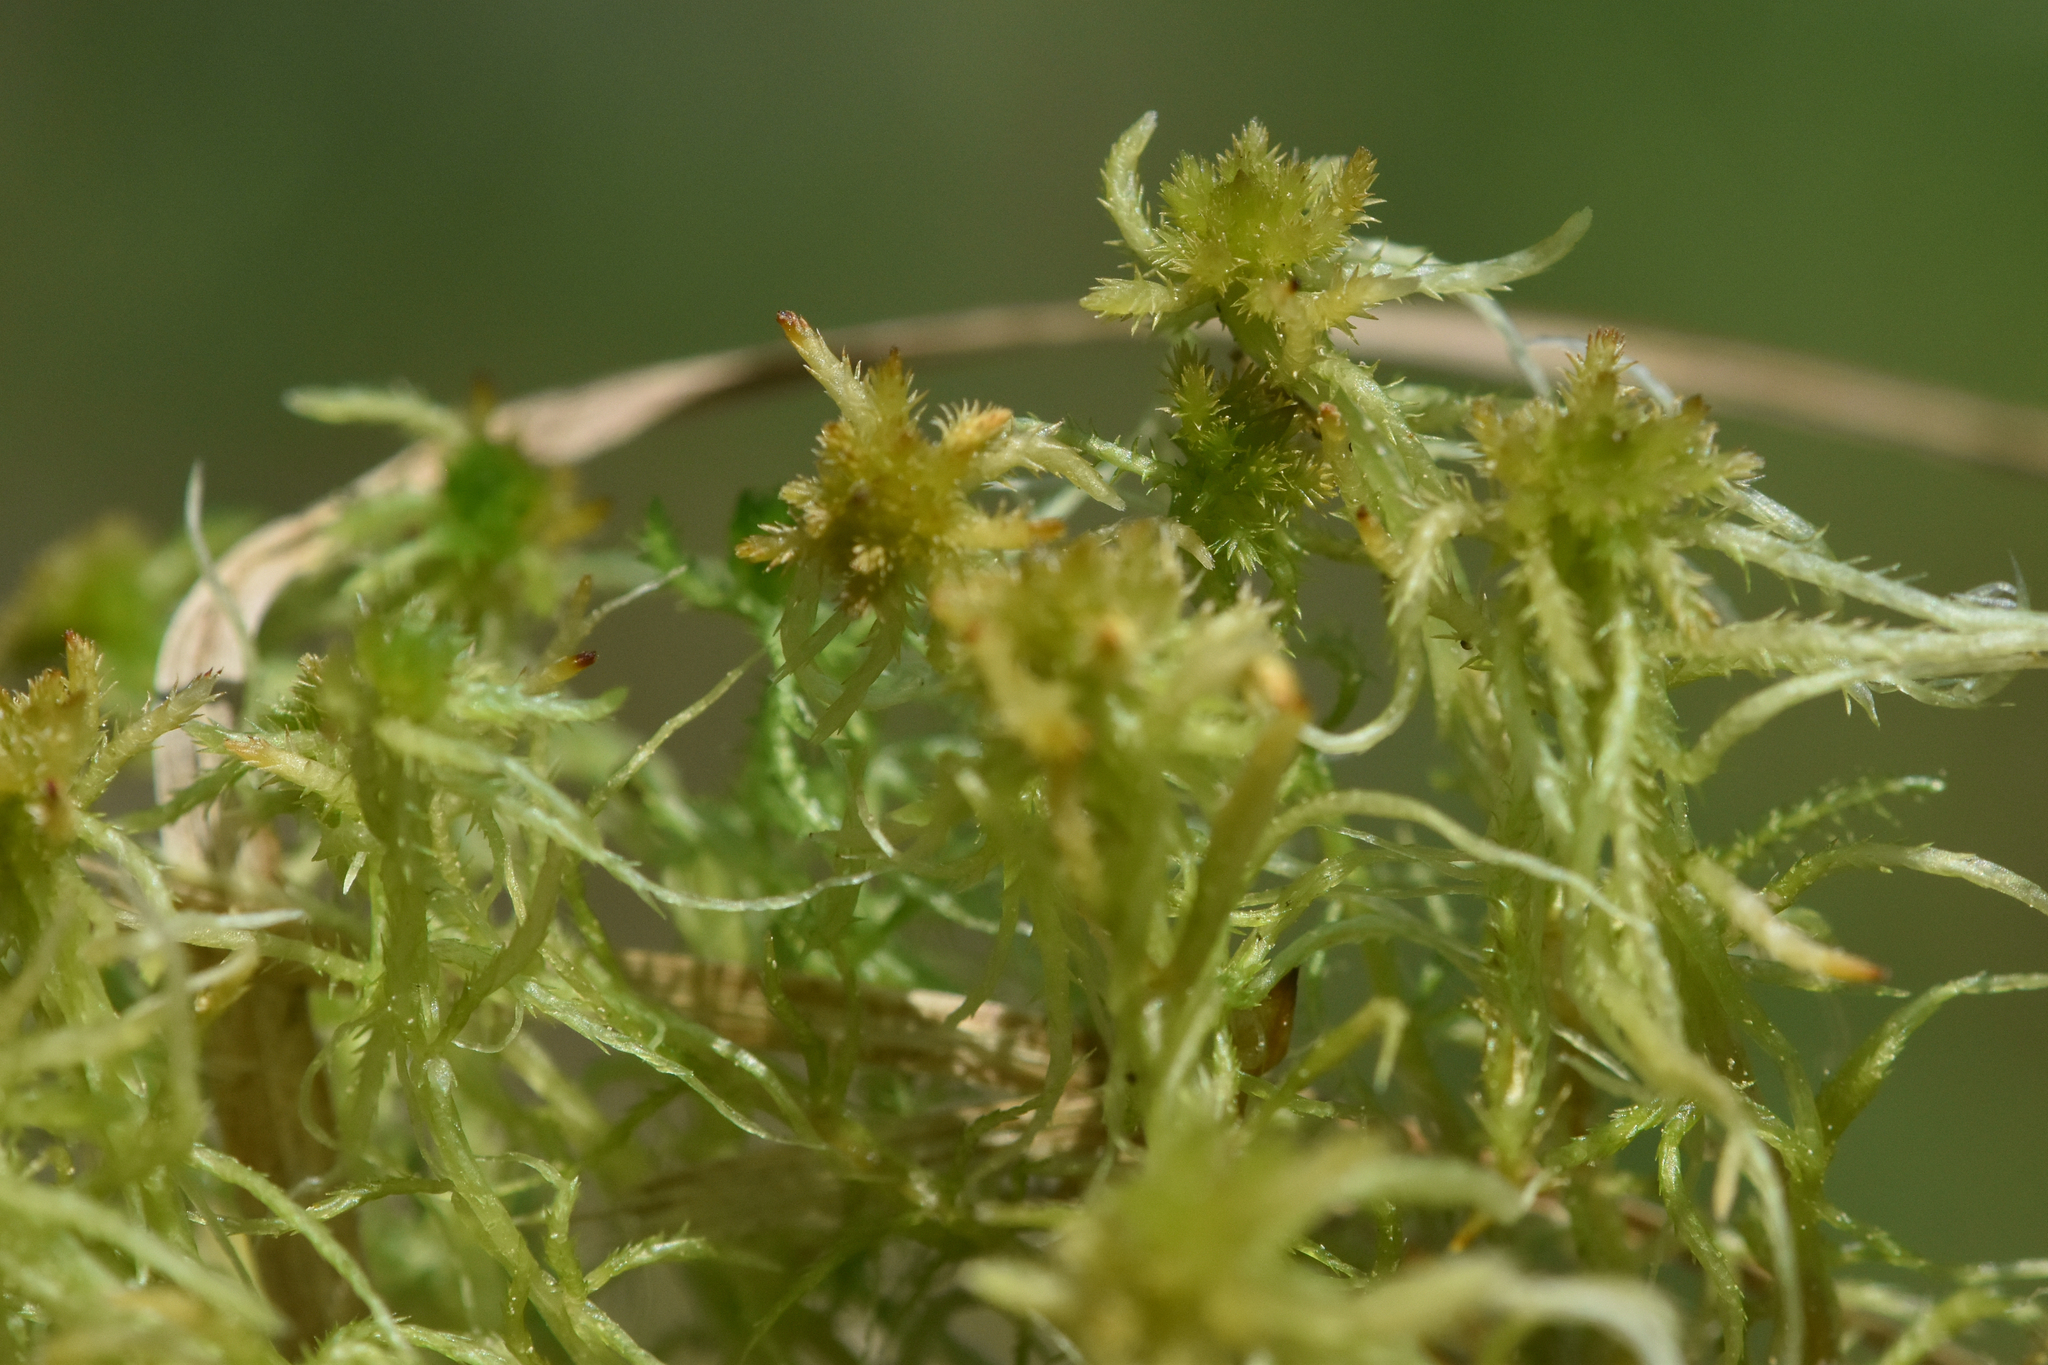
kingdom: Plantae
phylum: Bryophyta
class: Sphagnopsida
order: Sphagnales
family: Sphagnaceae
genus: Sphagnum
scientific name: Sphagnum squarrosum
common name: Shaggy peat moss
